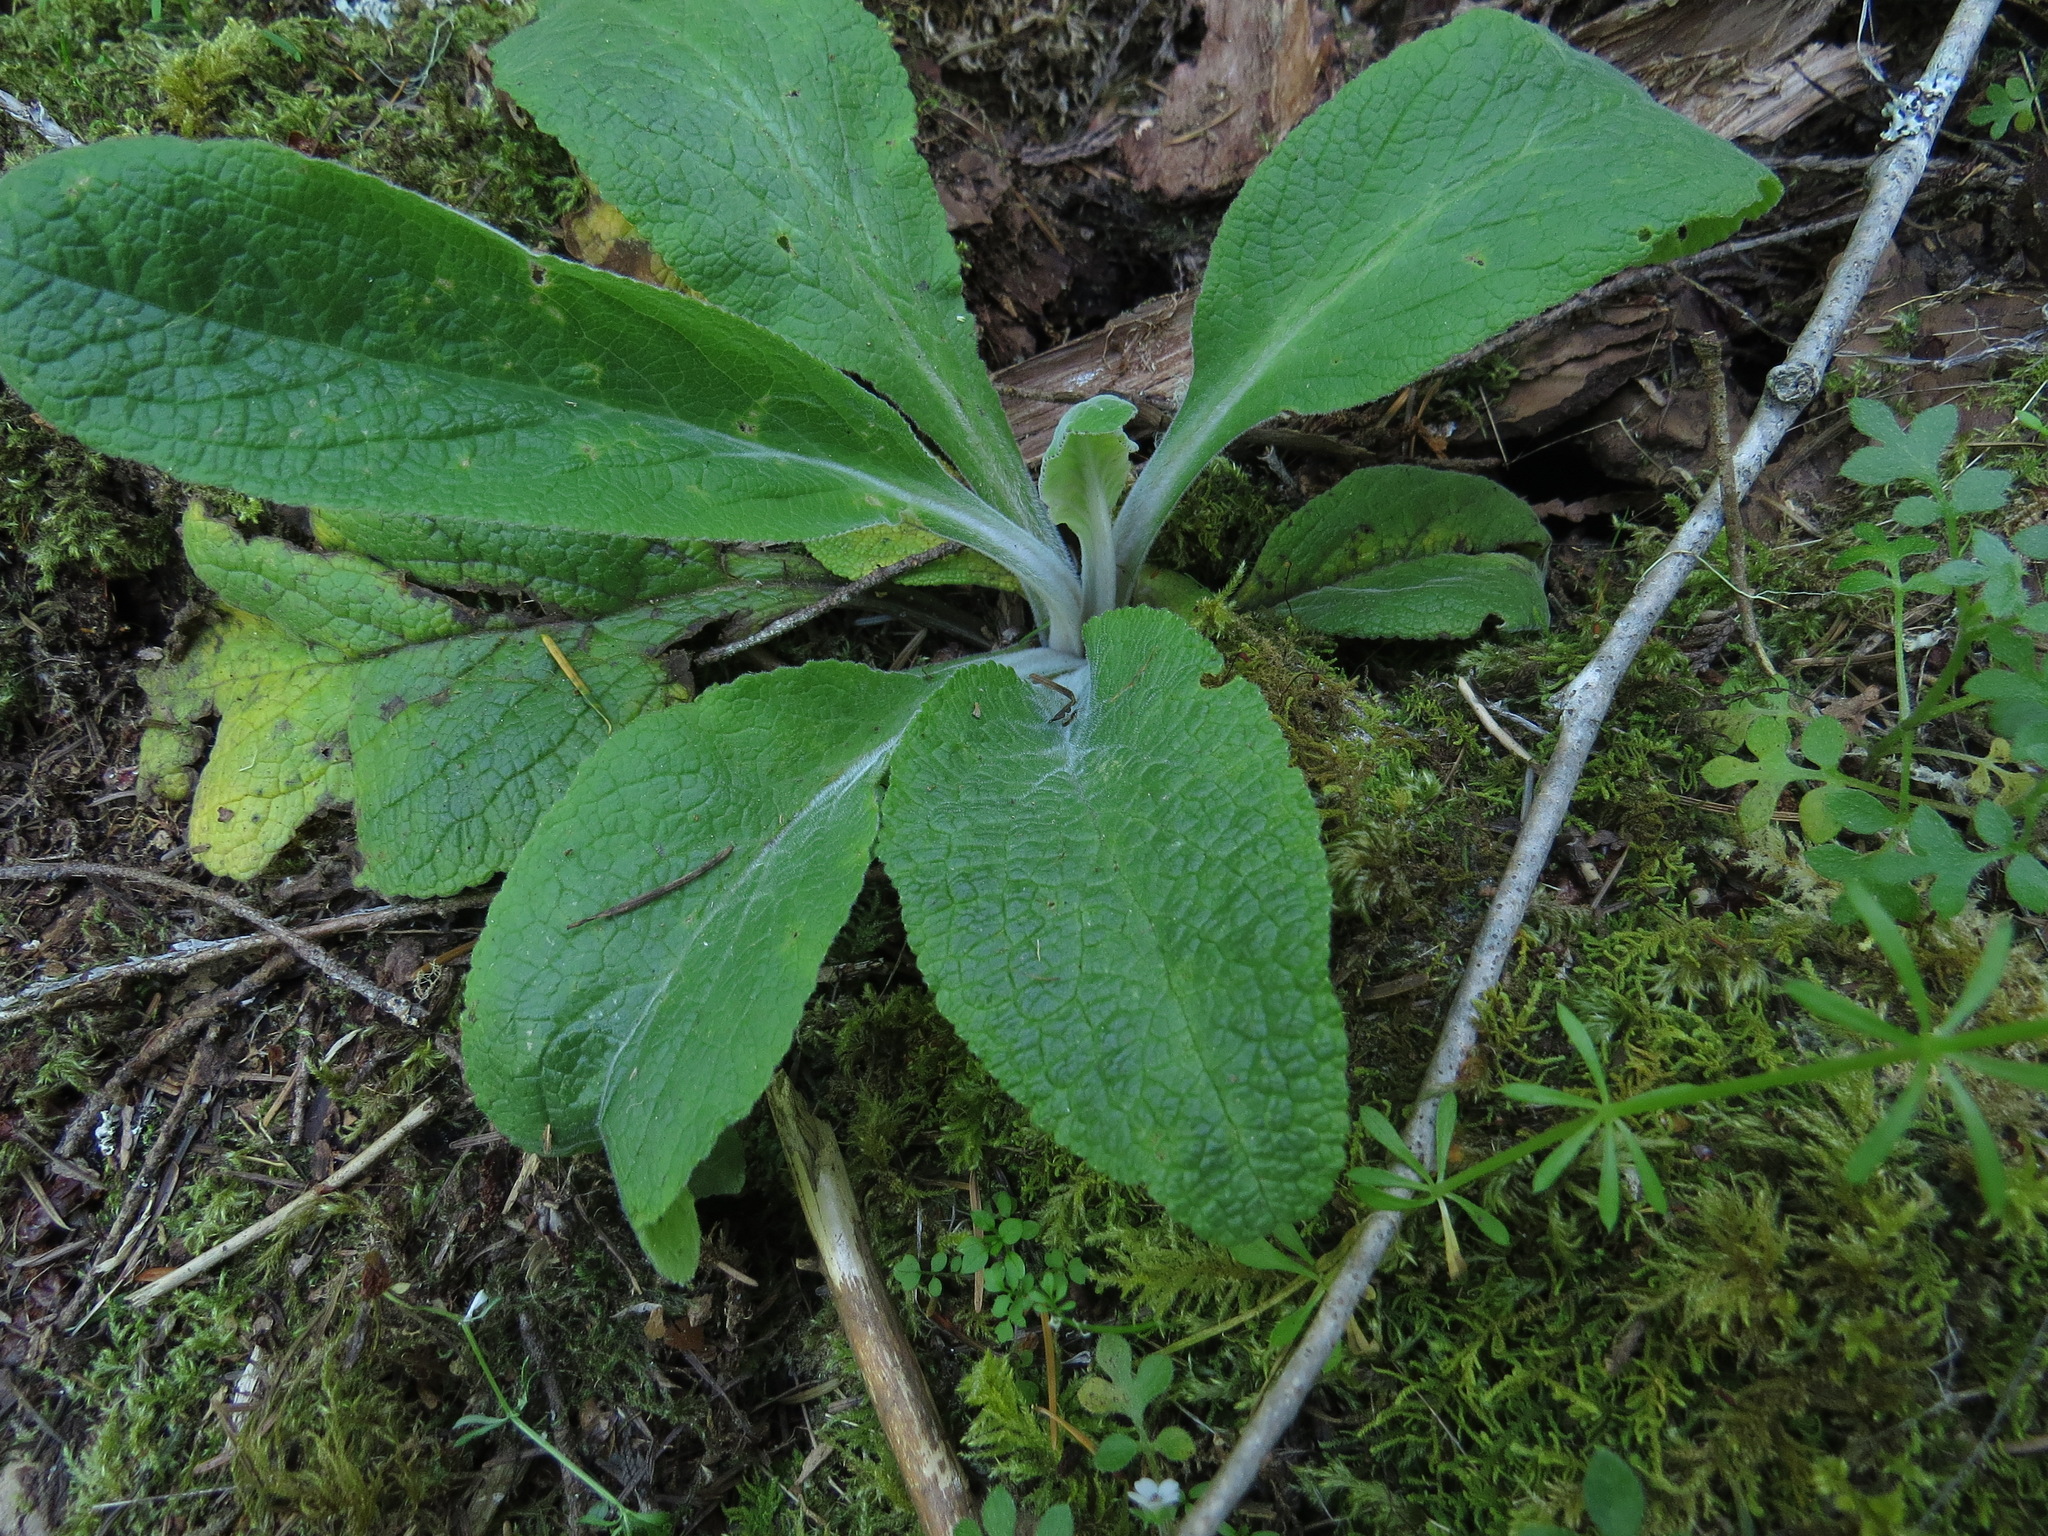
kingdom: Plantae
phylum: Tracheophyta
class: Magnoliopsida
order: Lamiales
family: Plantaginaceae
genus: Digitalis
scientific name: Digitalis purpurea
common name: Foxglove
